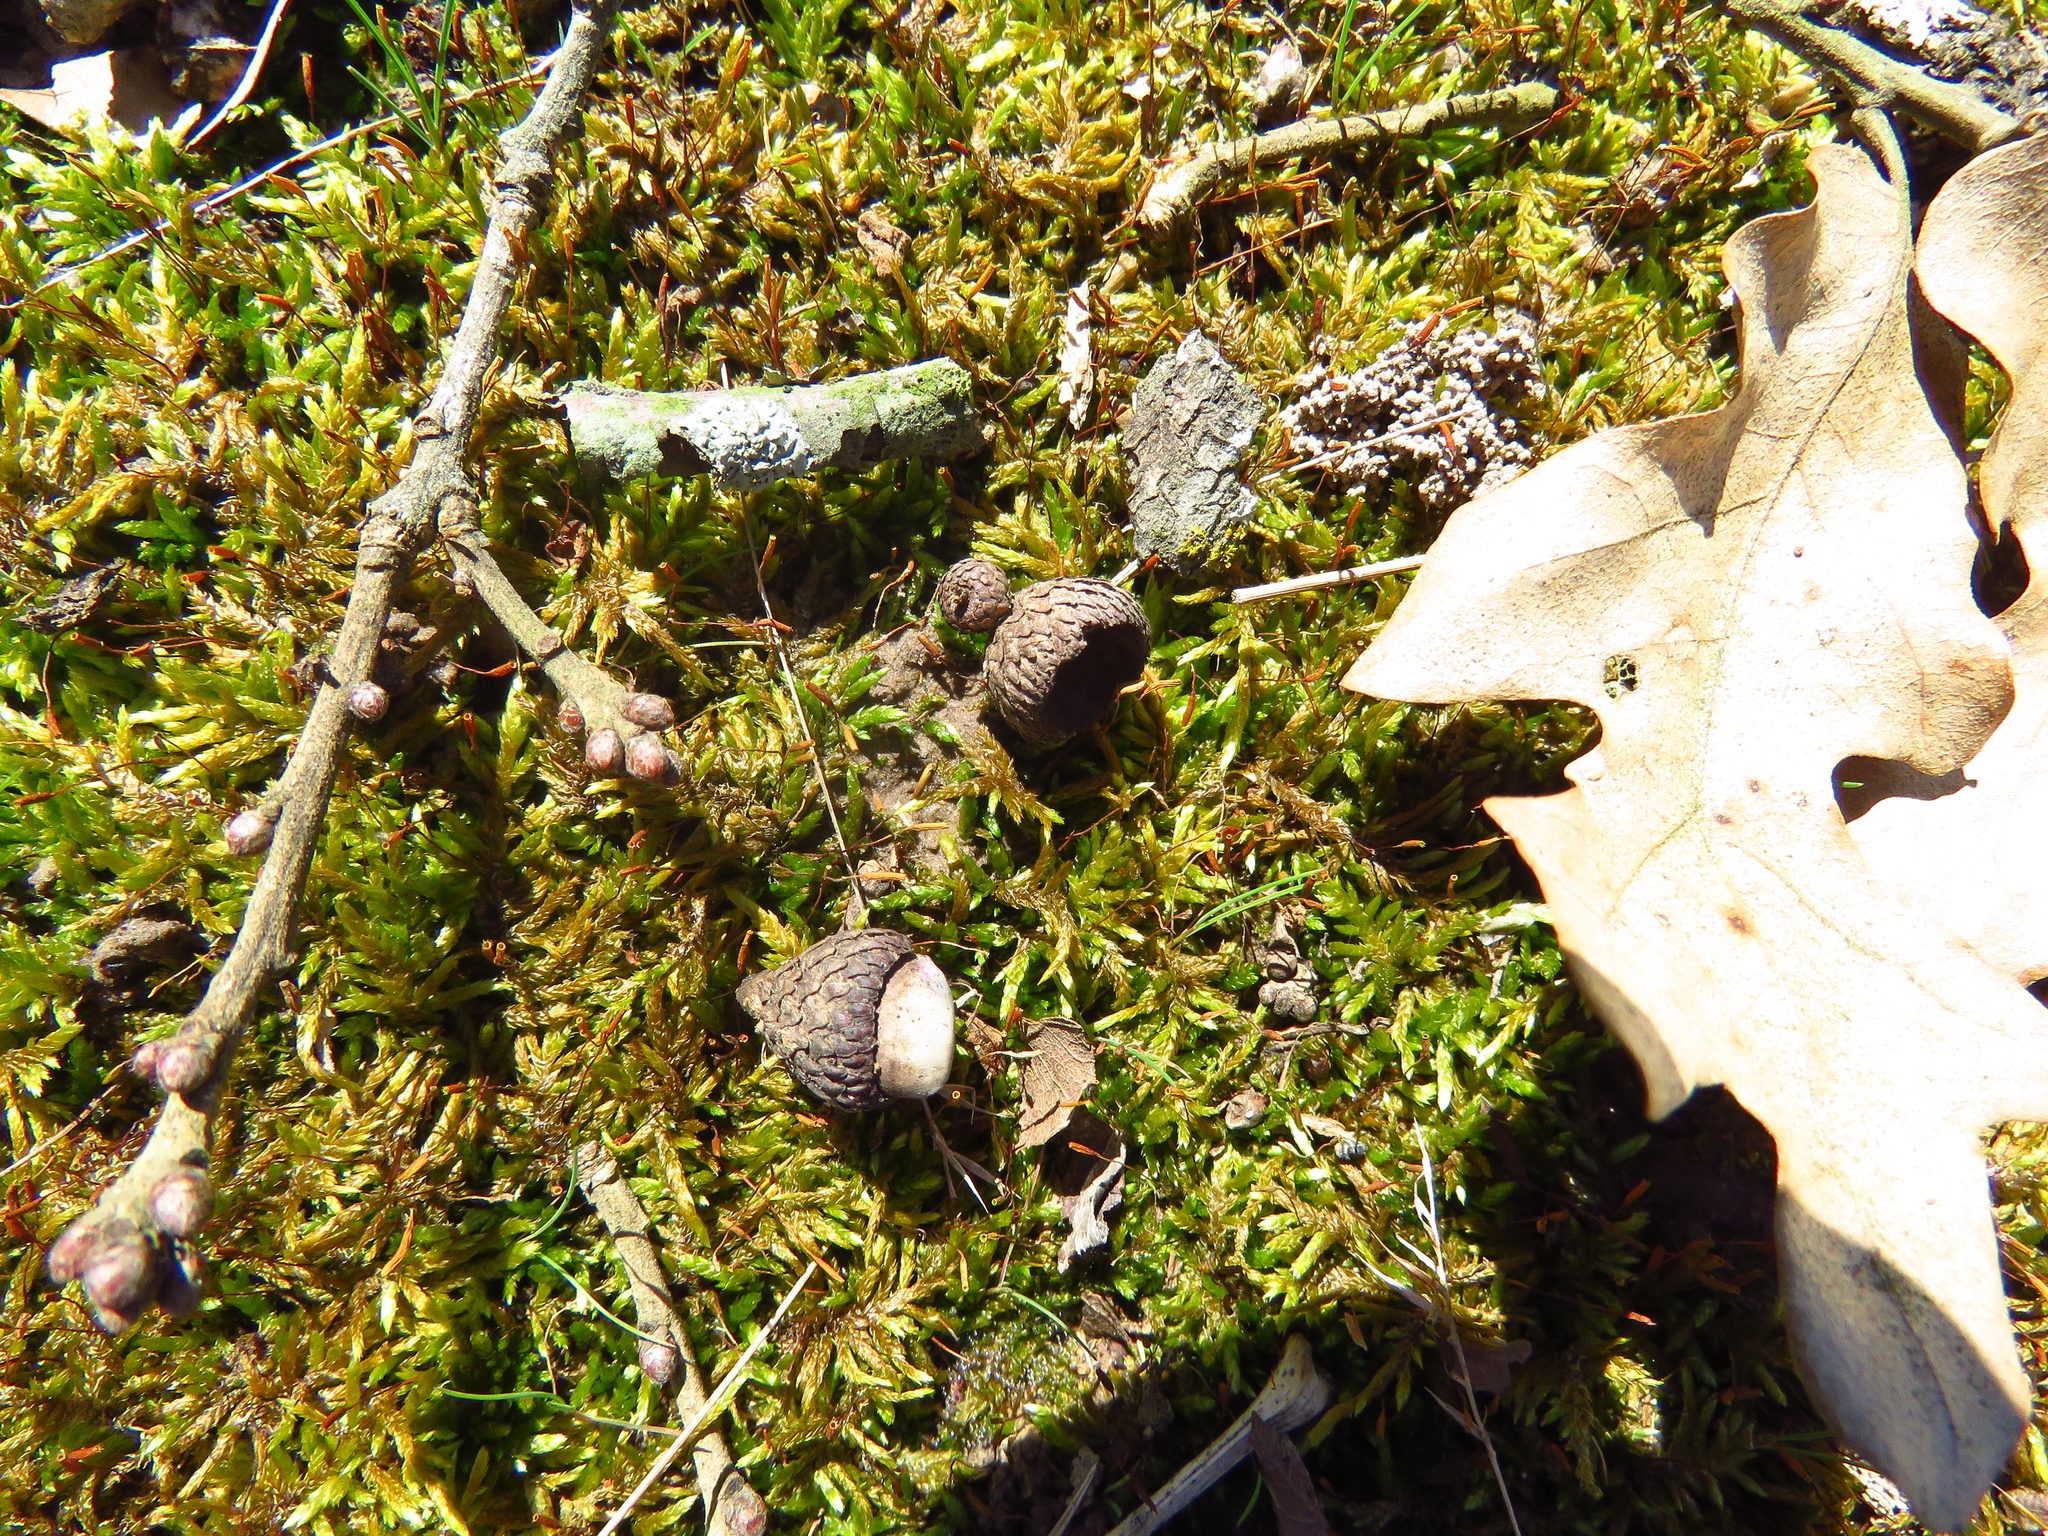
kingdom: Plantae
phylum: Tracheophyta
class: Magnoliopsida
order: Fagales
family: Fagaceae
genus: Quercus
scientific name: Quercus stellata
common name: Post oak
